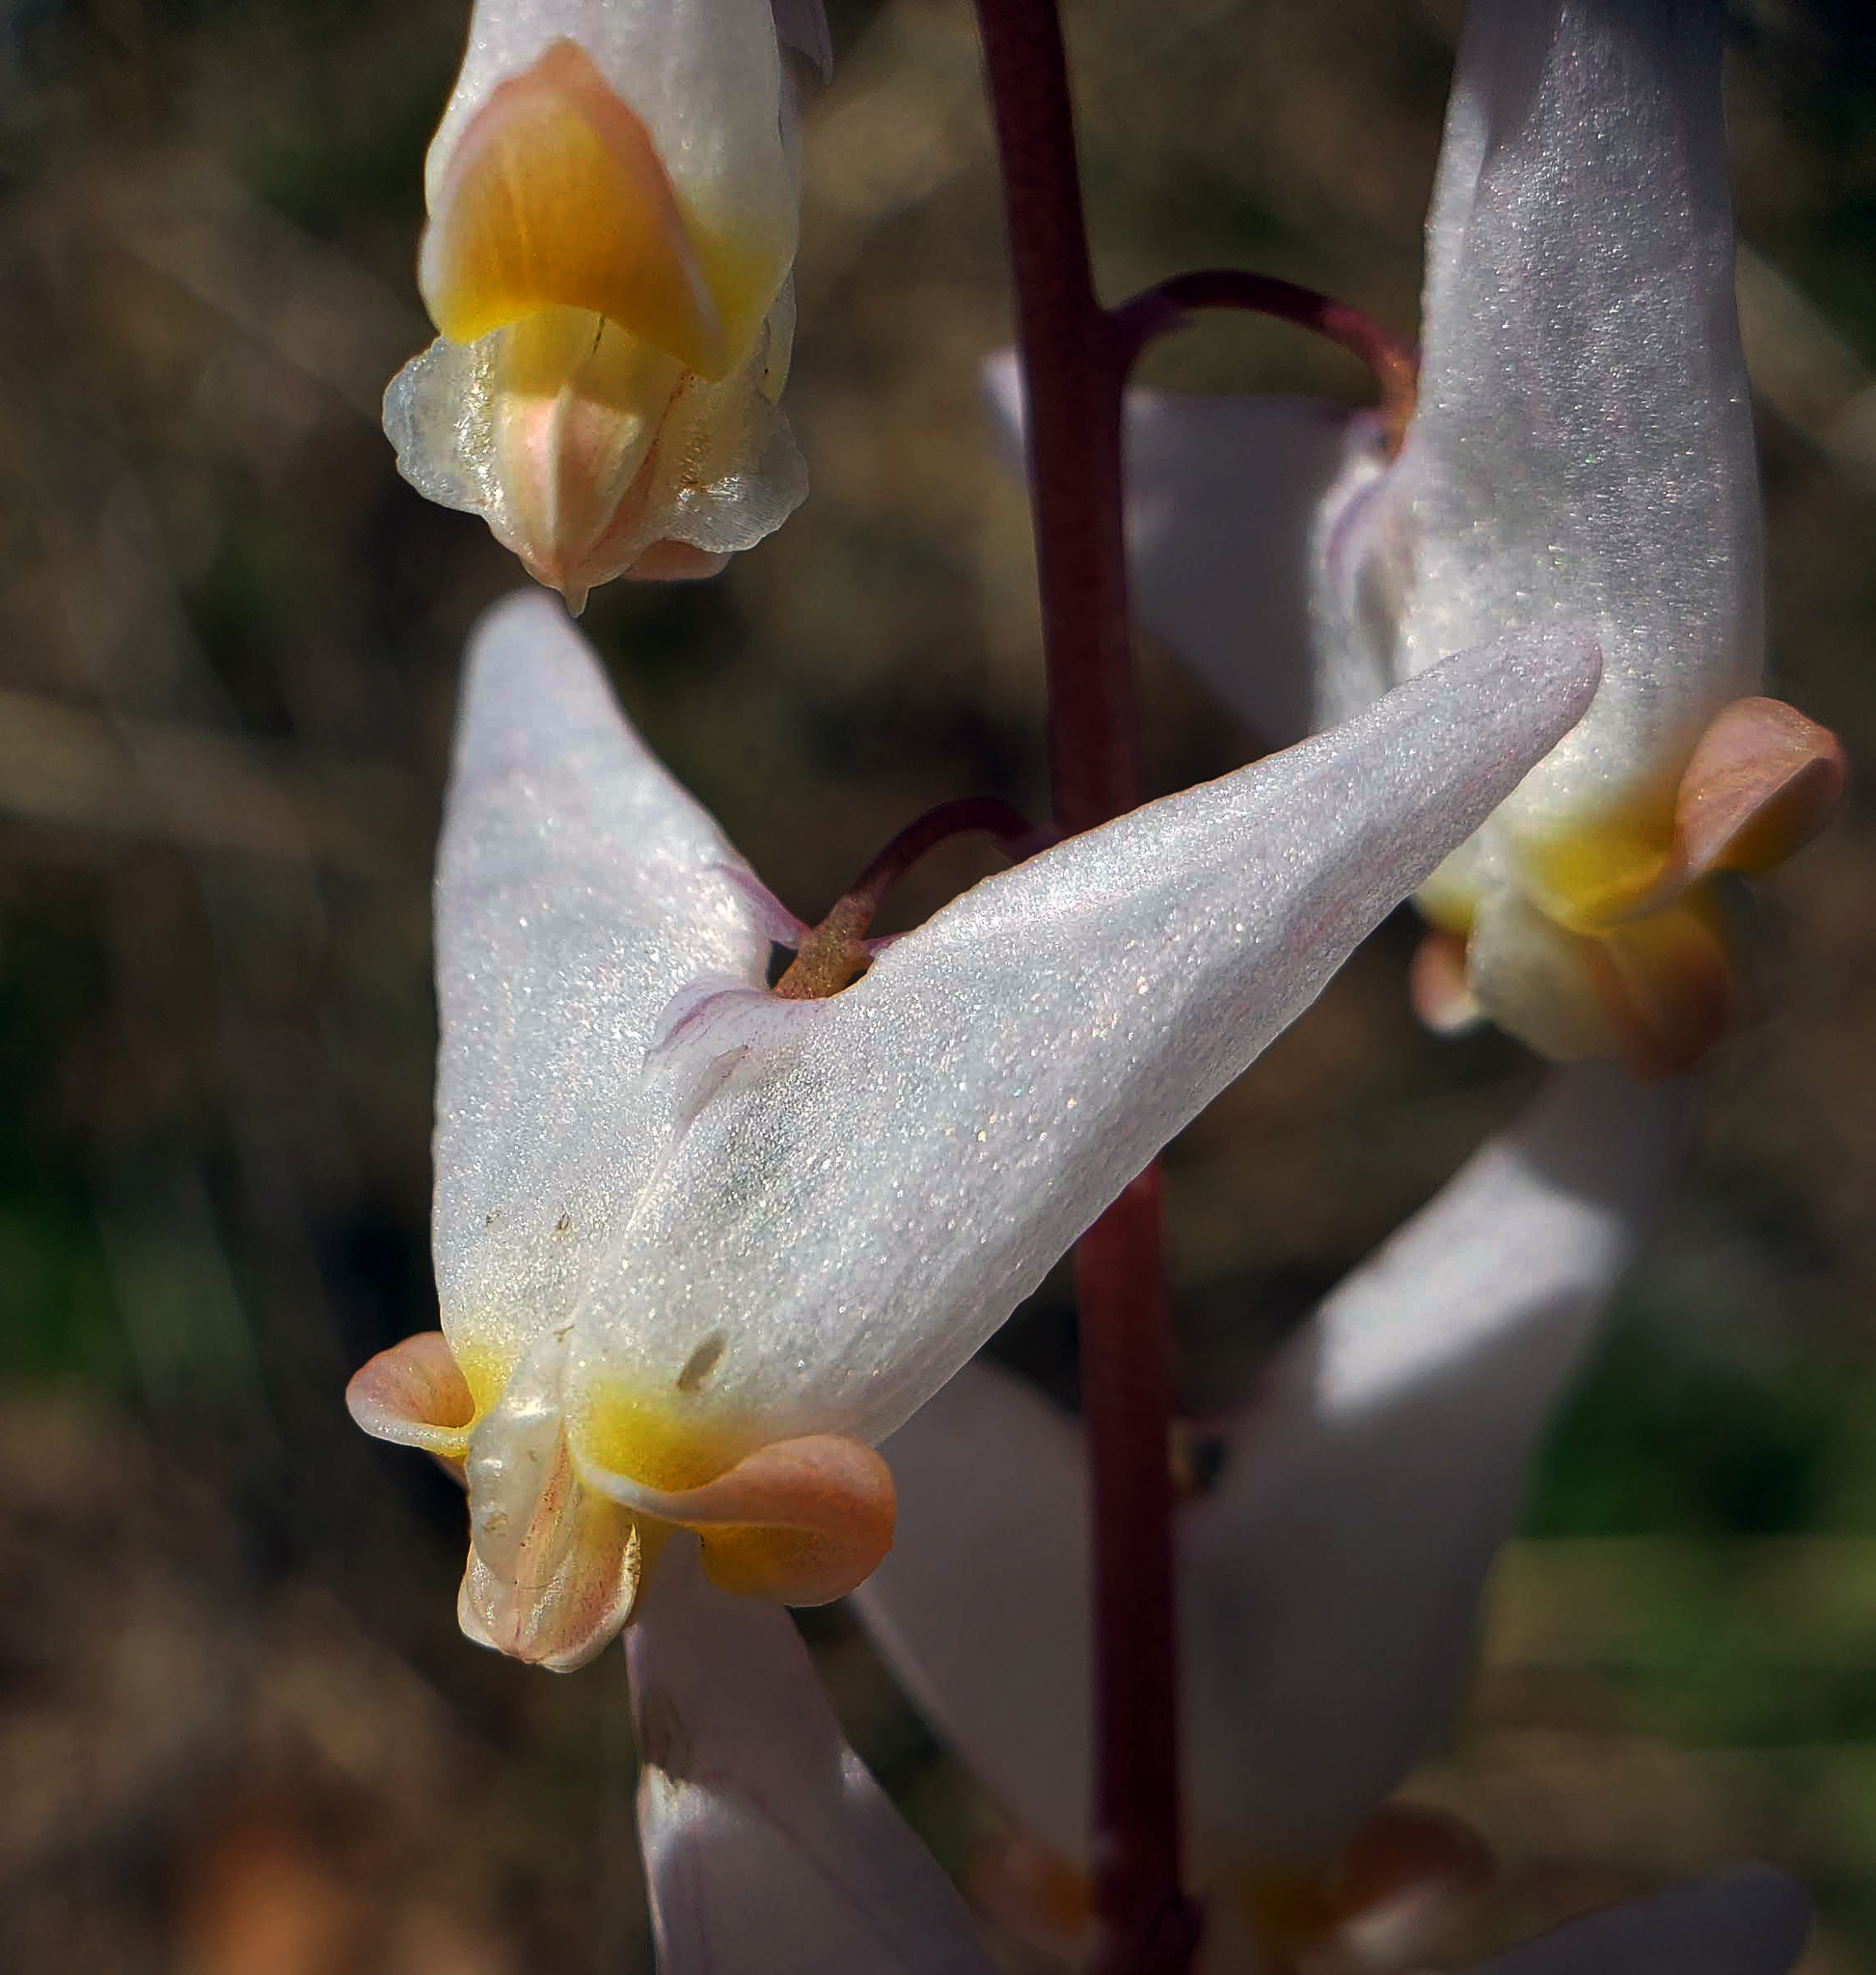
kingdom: Plantae
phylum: Tracheophyta
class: Magnoliopsida
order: Ranunculales
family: Papaveraceae
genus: Dicentra
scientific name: Dicentra cucullaria
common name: Dutchman's breeches
